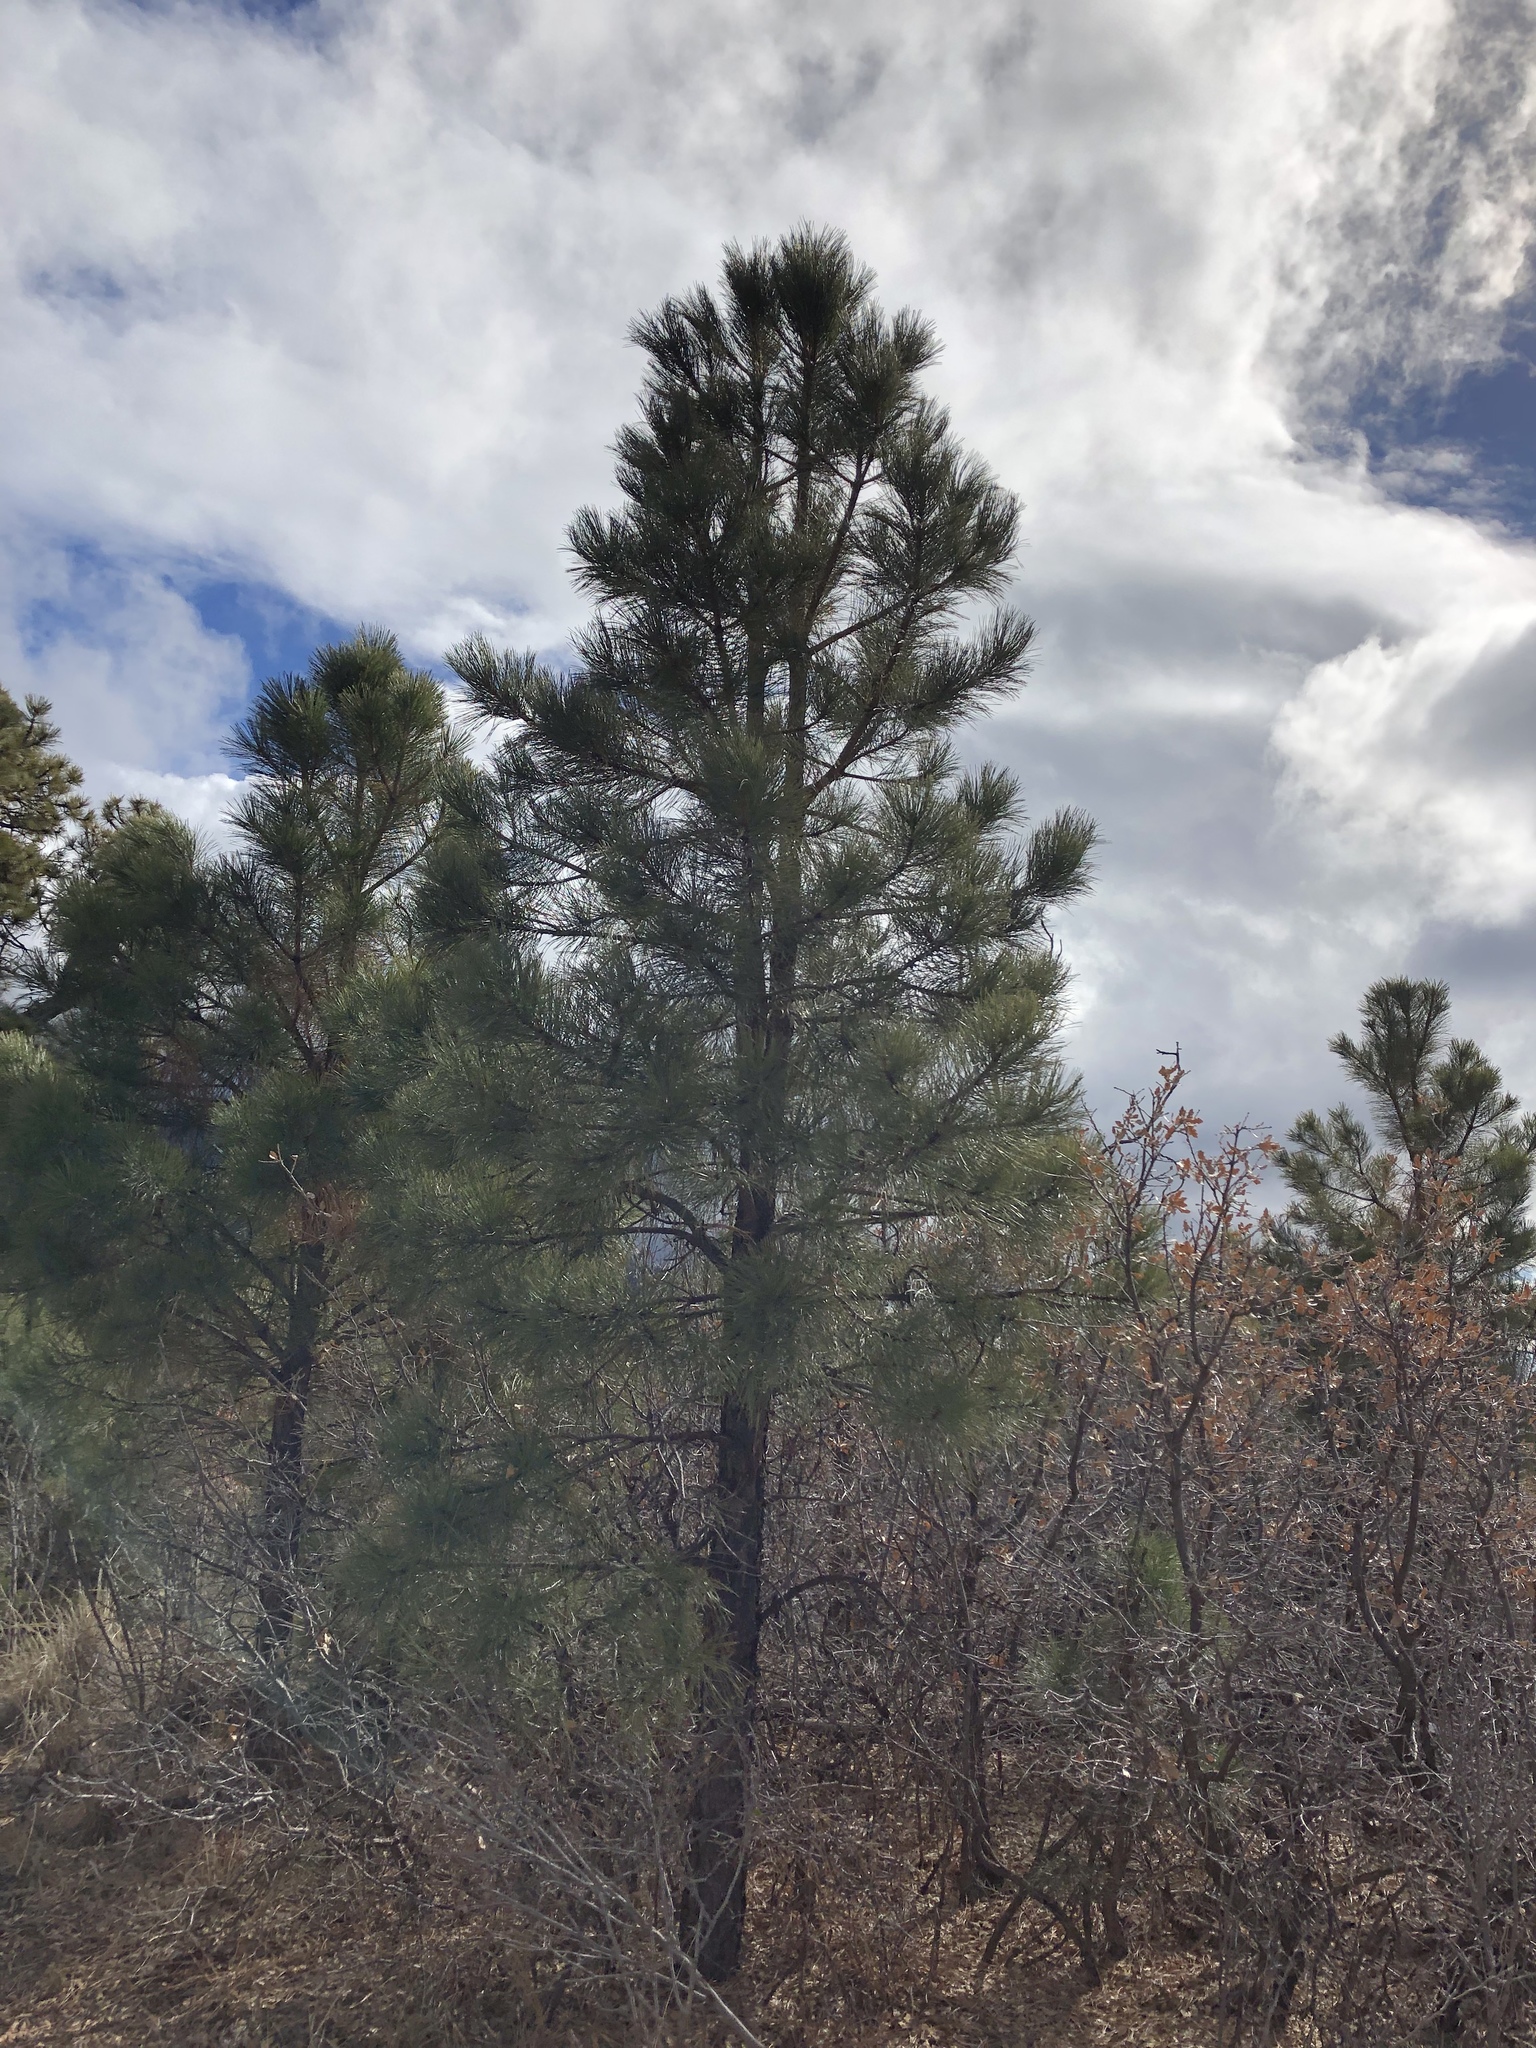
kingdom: Plantae
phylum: Tracheophyta
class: Pinopsida
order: Pinales
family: Pinaceae
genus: Pinus
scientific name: Pinus ponderosa
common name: Western yellow-pine
